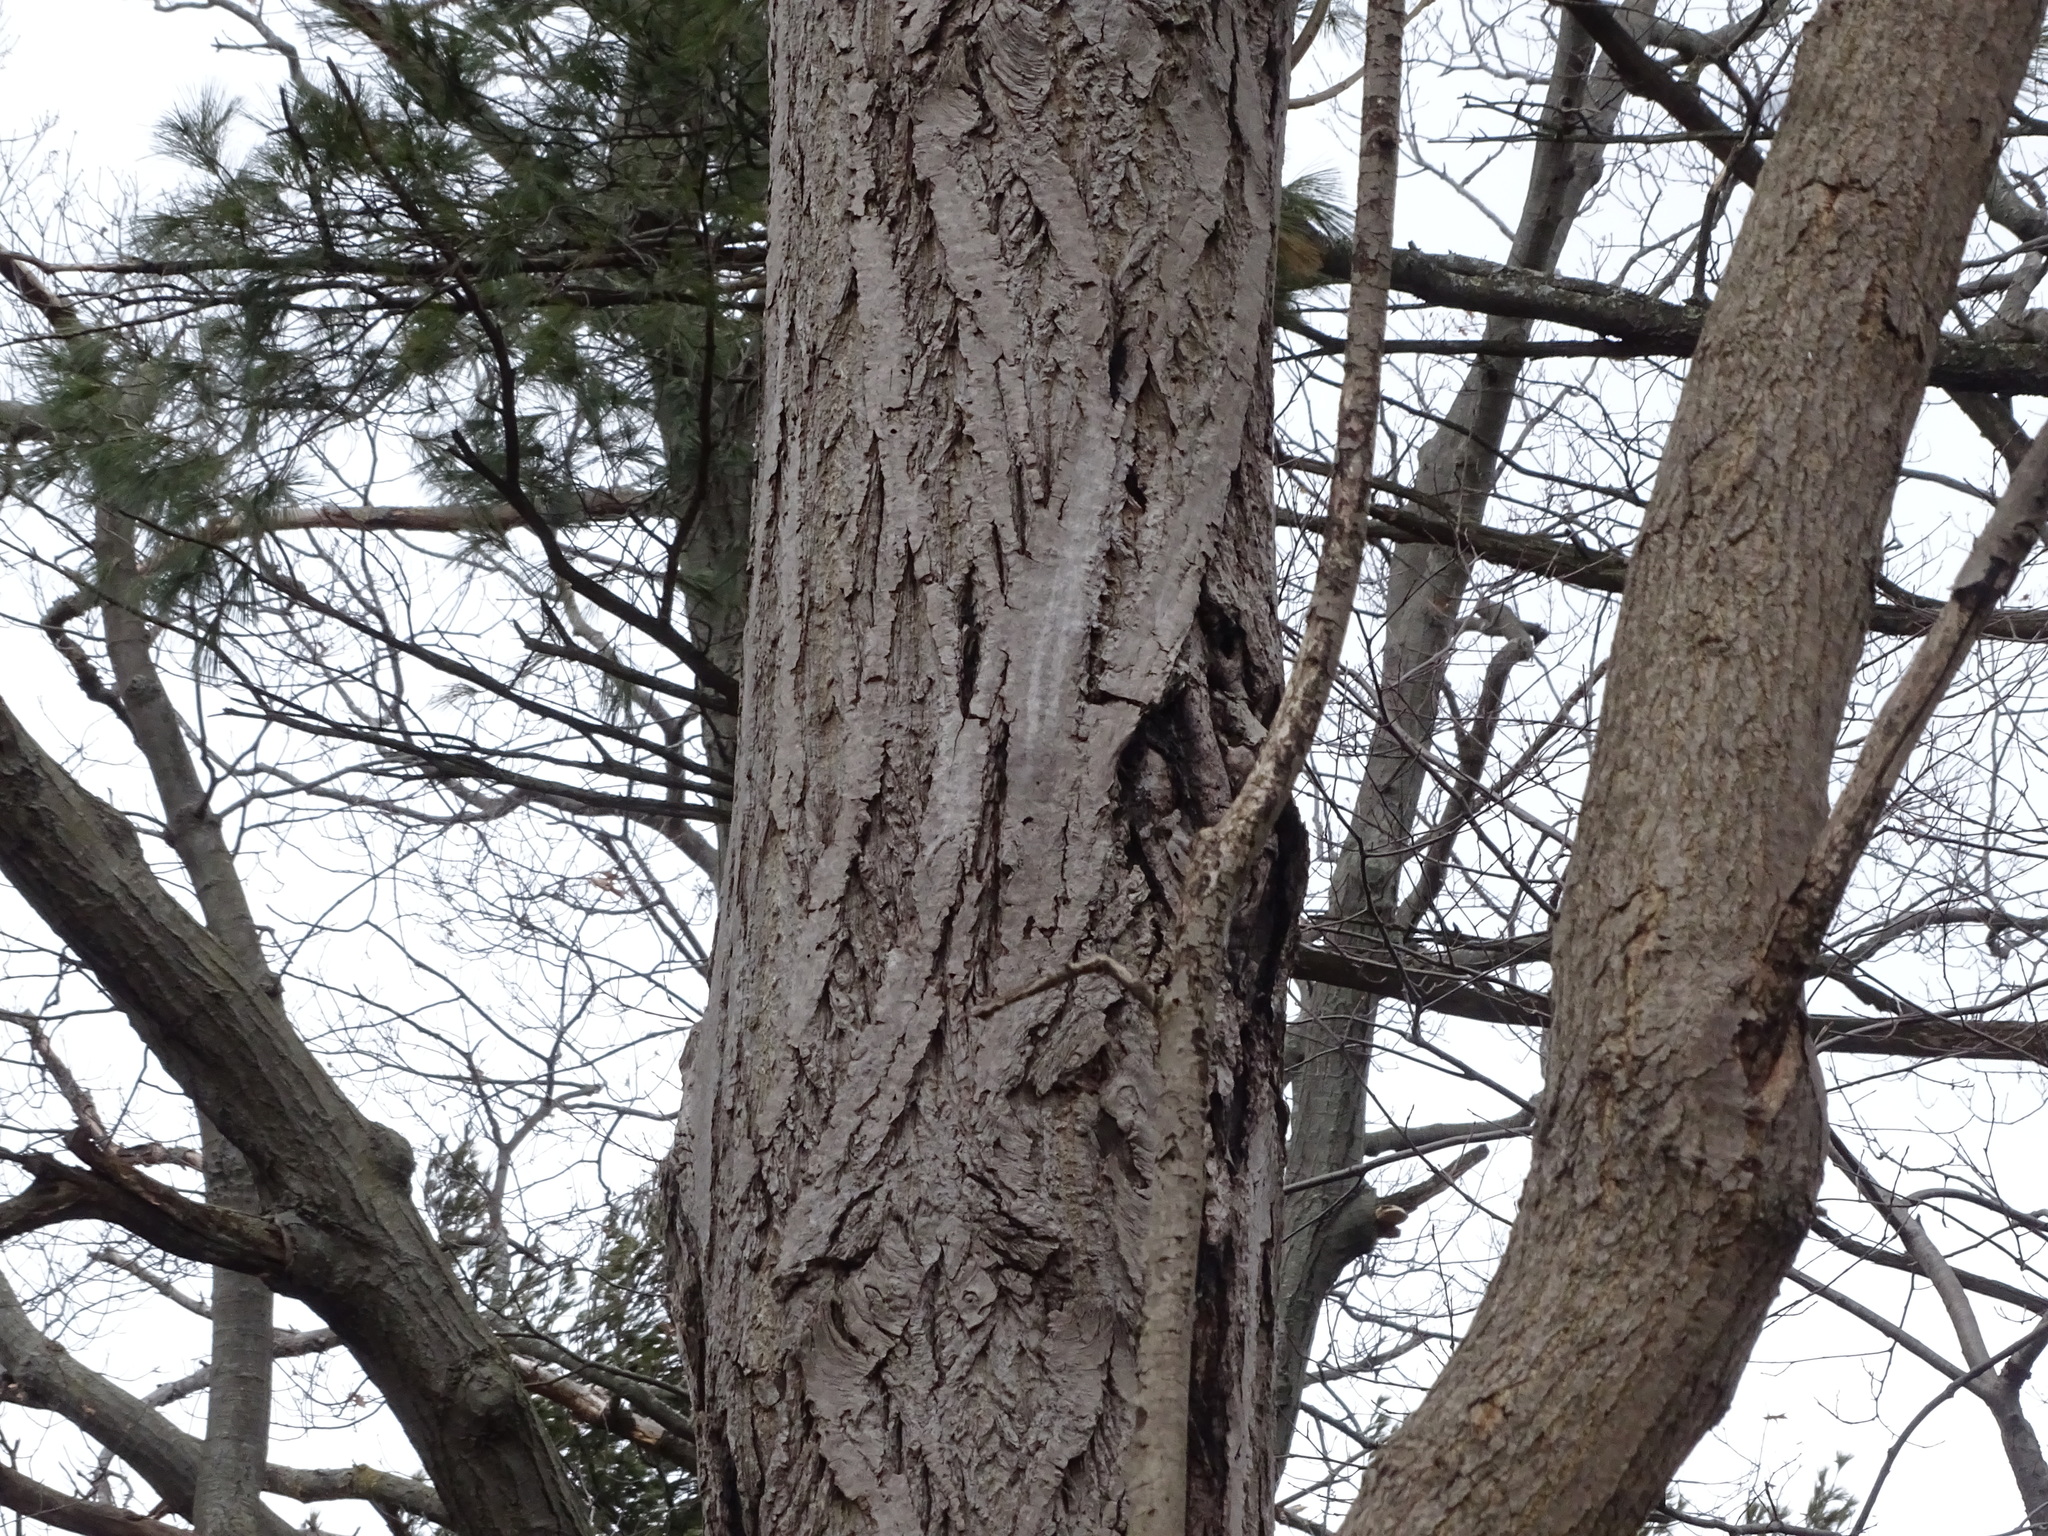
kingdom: Plantae
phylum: Tracheophyta
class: Magnoliopsida
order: Fagales
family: Juglandaceae
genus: Juglans
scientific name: Juglans cinerea
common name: Butternut
